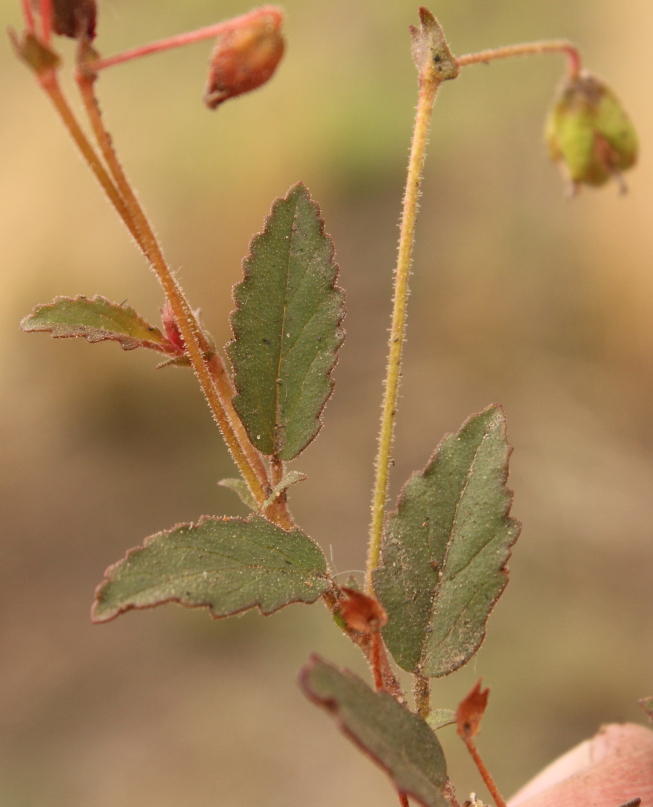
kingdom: Plantae
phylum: Tracheophyta
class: Magnoliopsida
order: Malvales
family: Malvaceae
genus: Hermannia
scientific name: Hermannia
